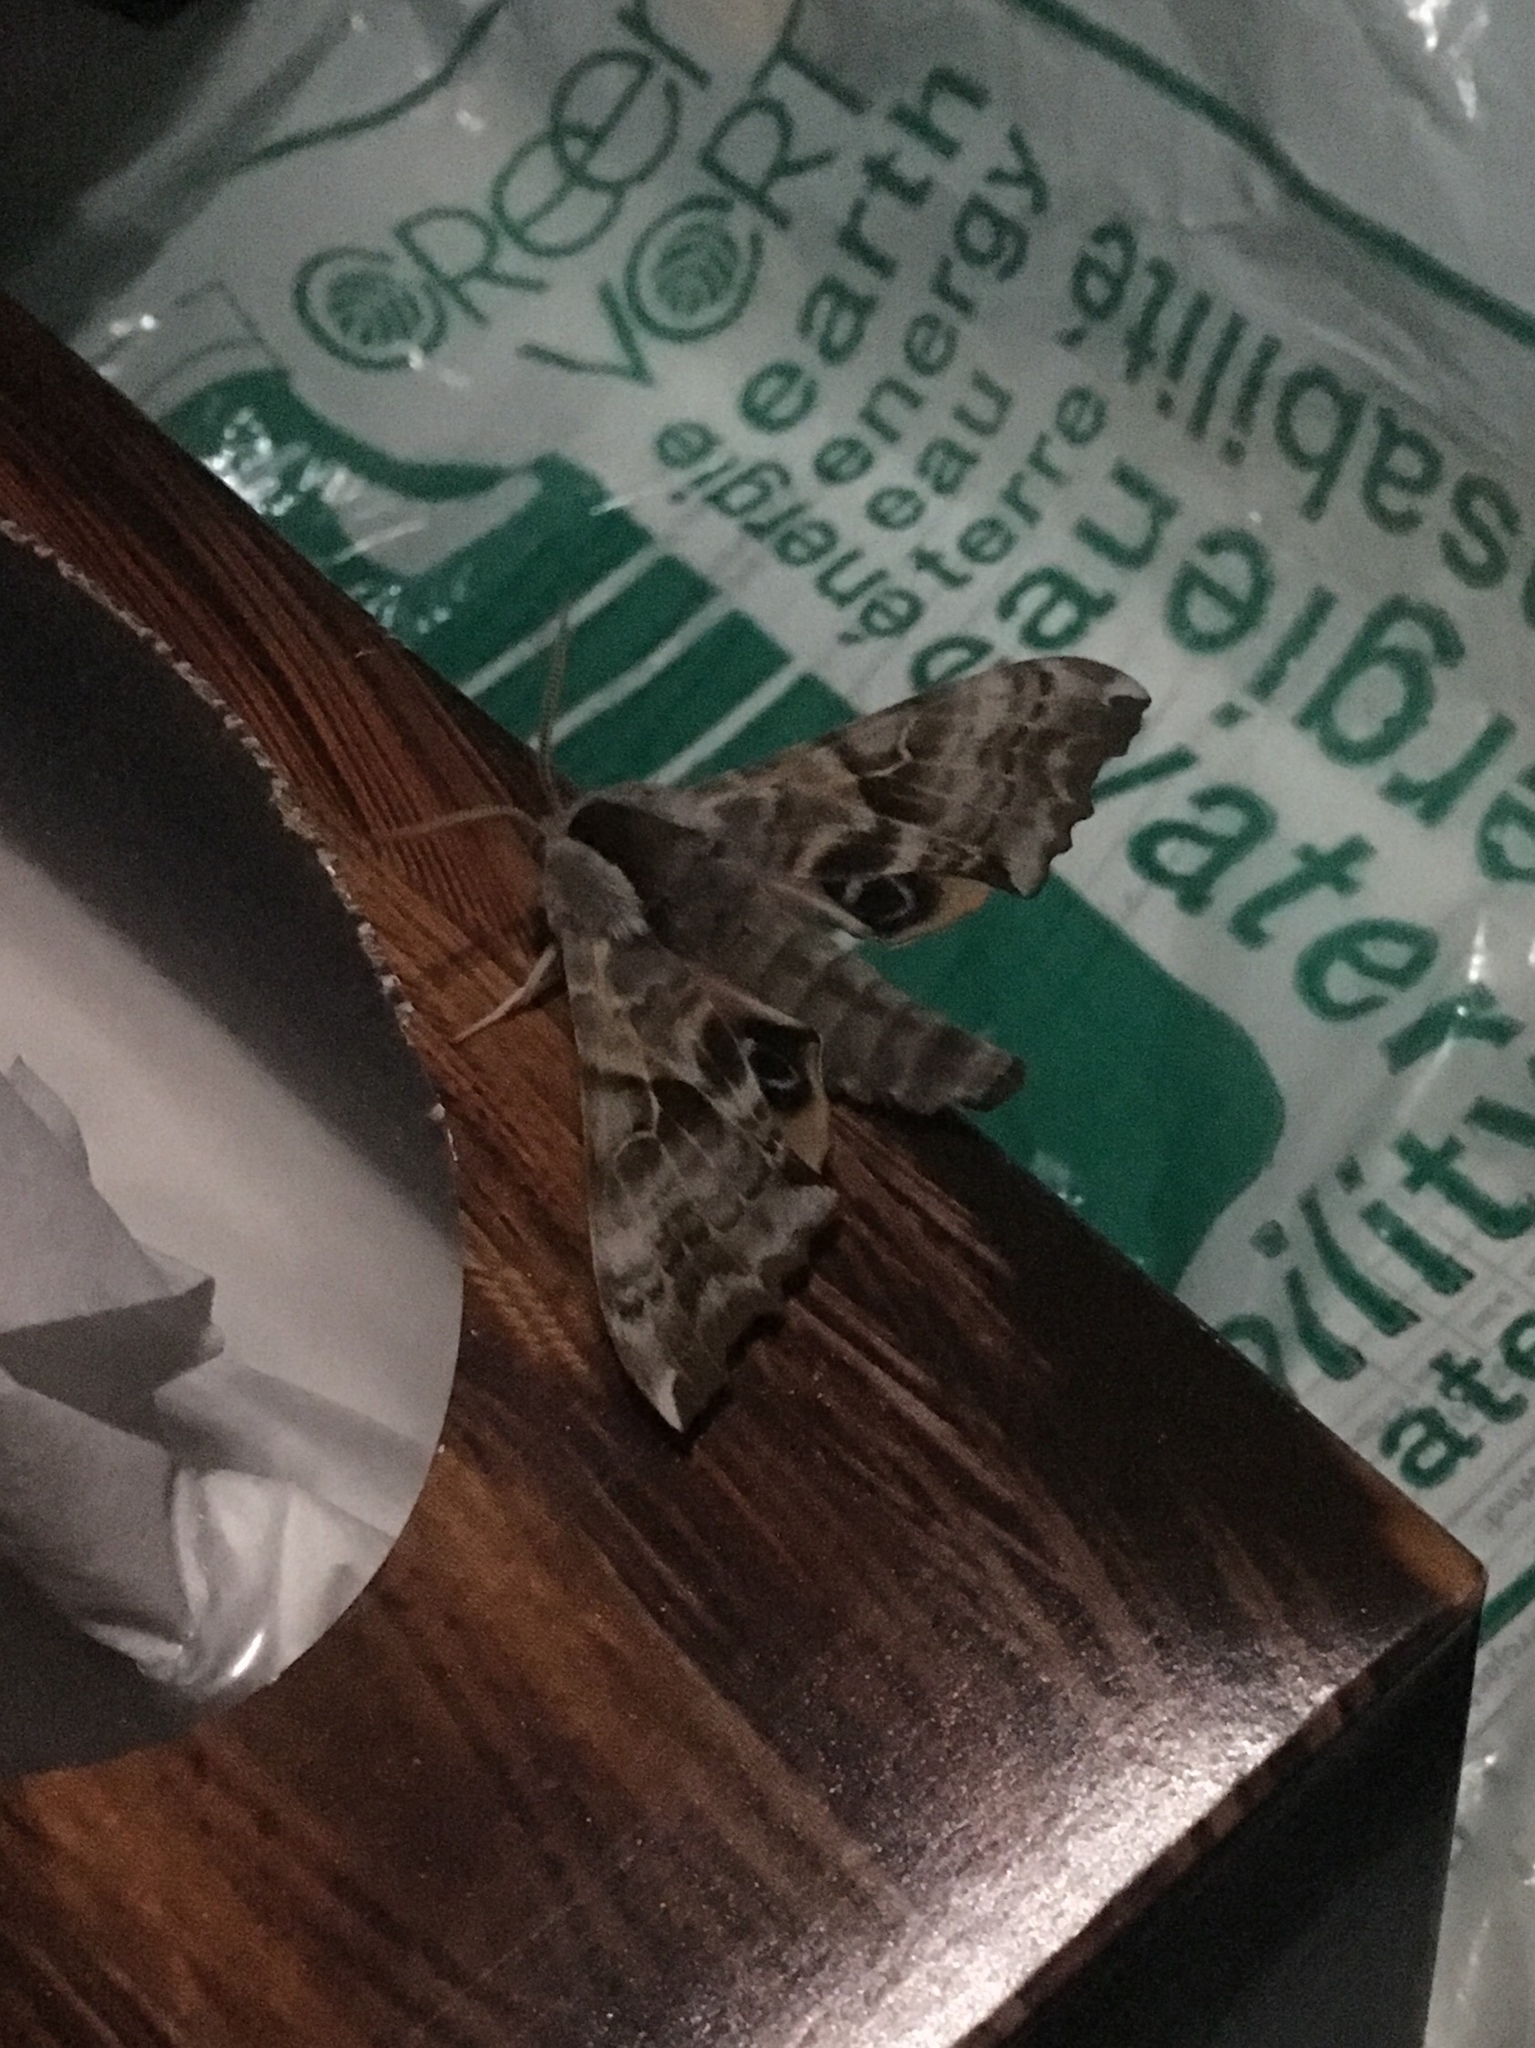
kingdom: Animalia
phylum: Arthropoda
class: Insecta
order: Lepidoptera
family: Sphingidae
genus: Smerinthus
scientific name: Smerinthus cerisyi
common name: Cerisy's sphinx moth
